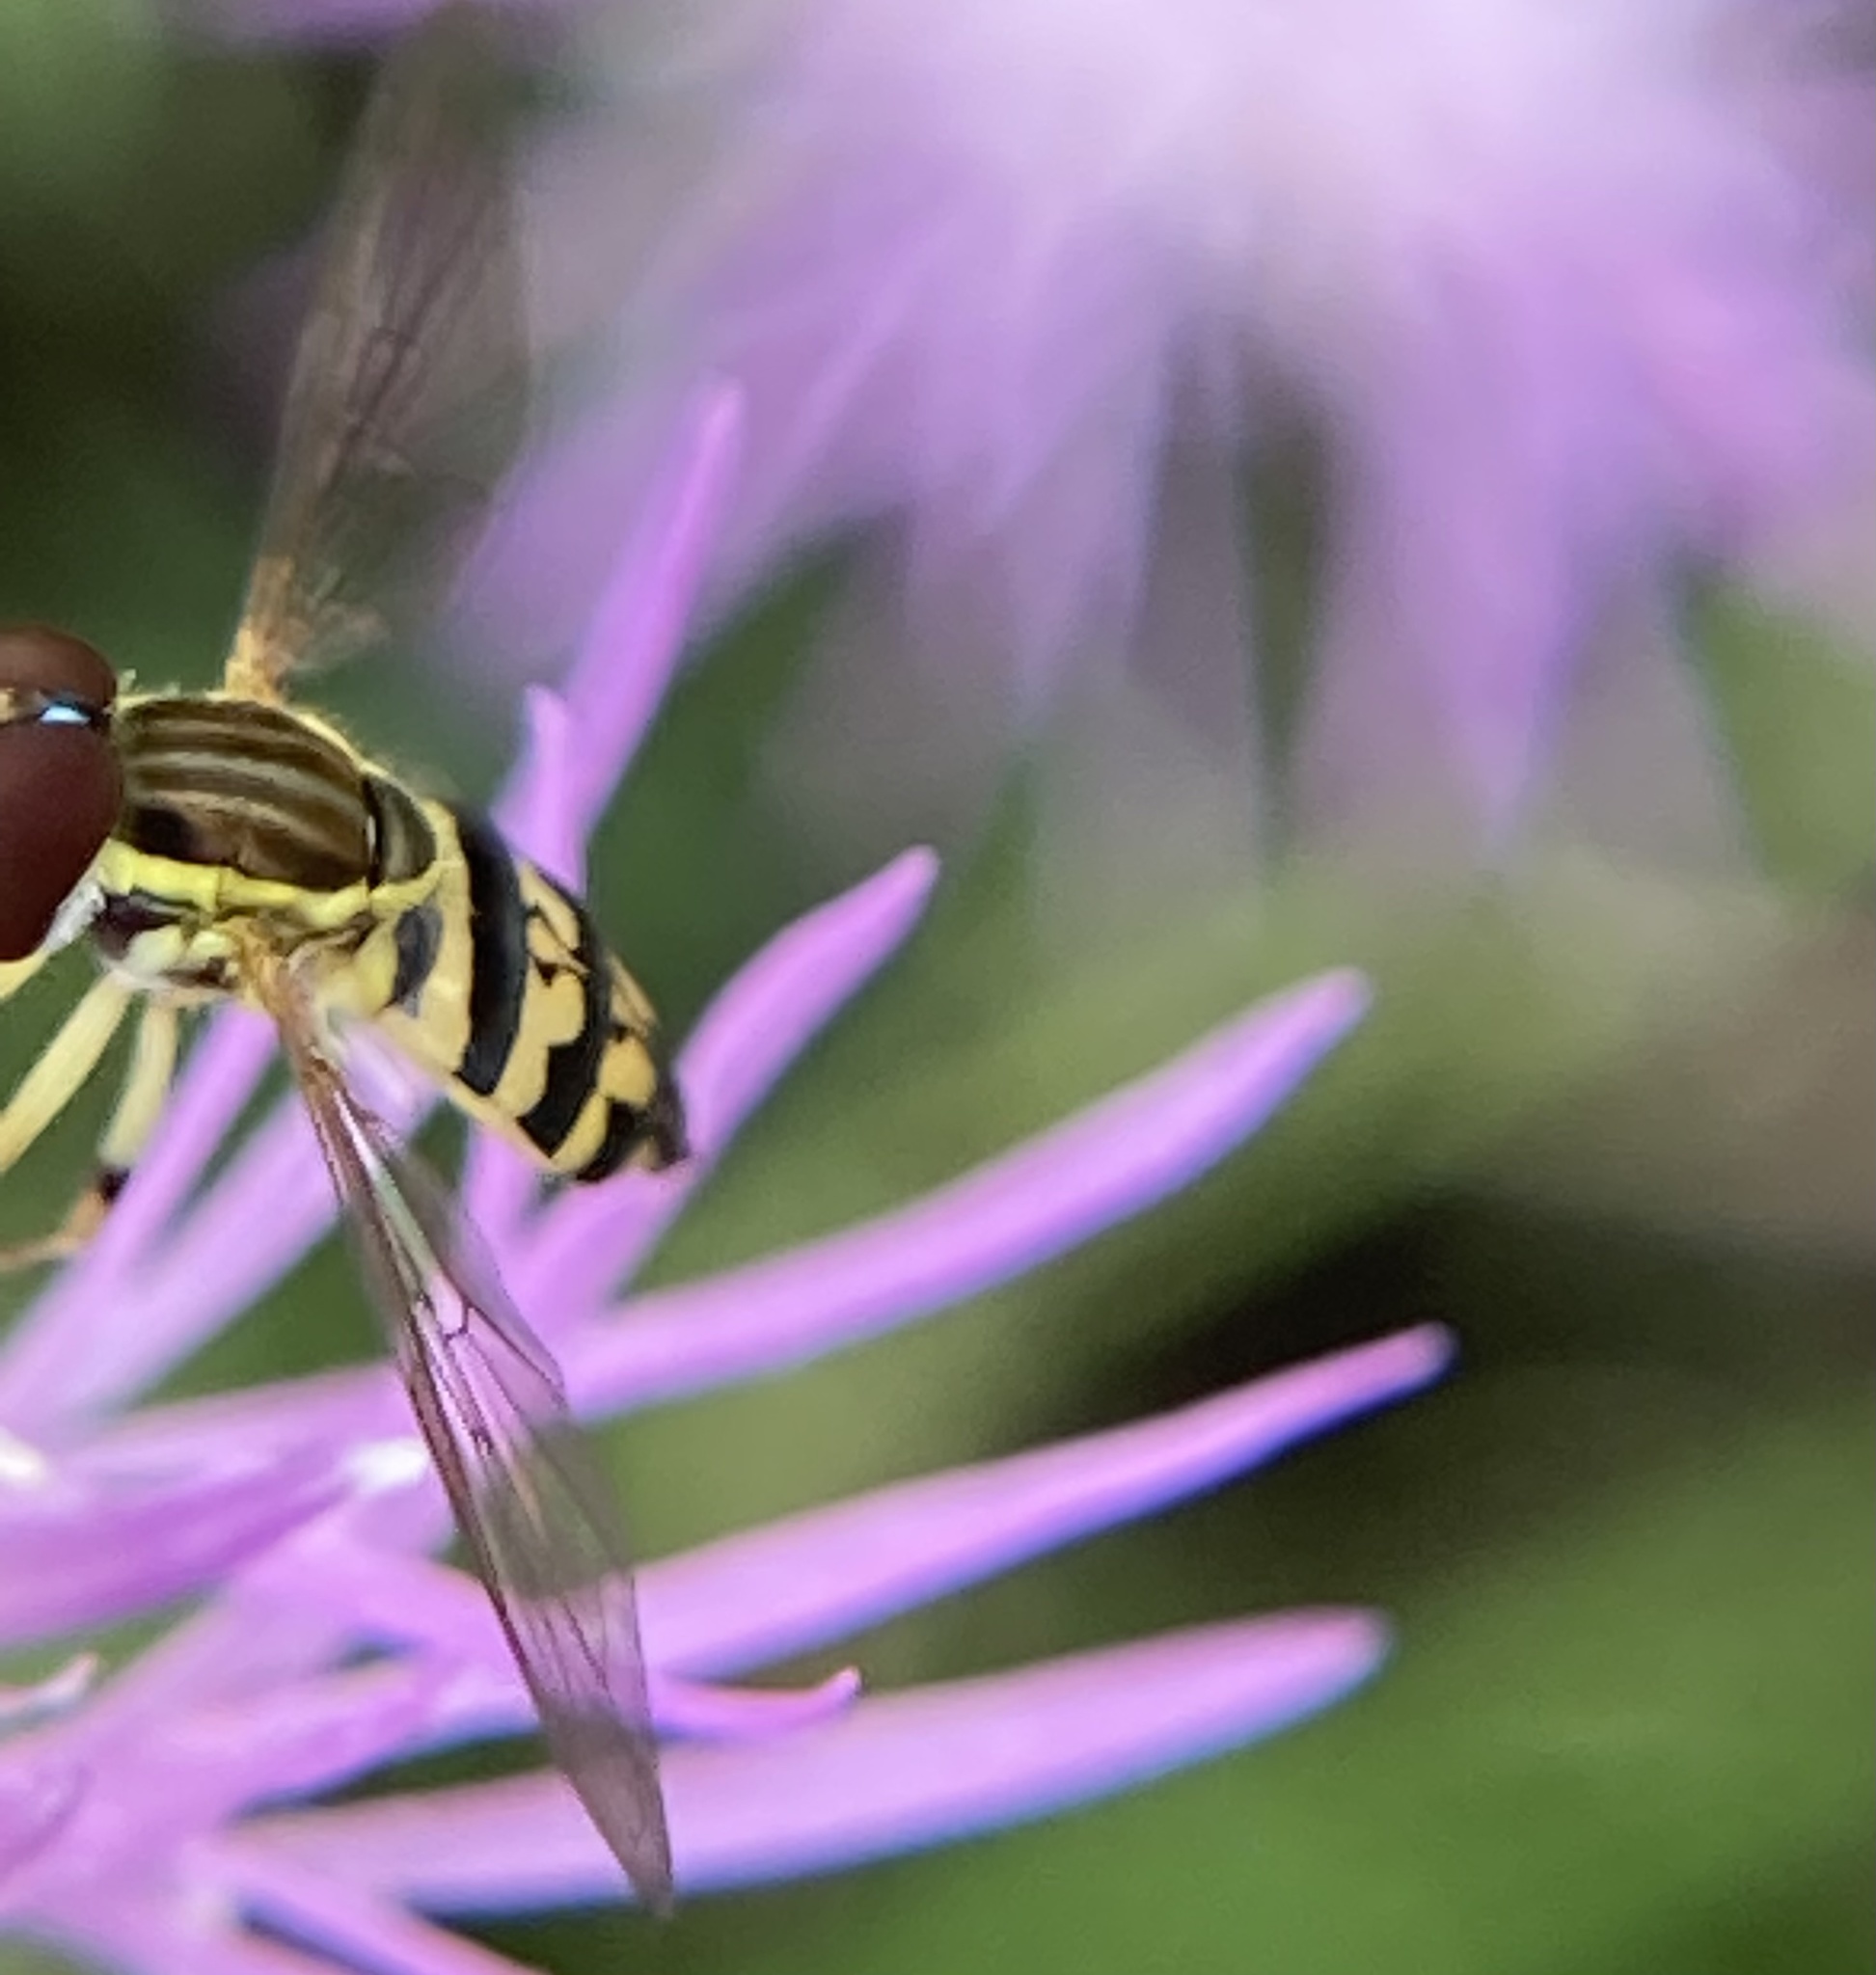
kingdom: Animalia
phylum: Arthropoda
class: Insecta
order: Diptera
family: Syrphidae
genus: Toxomerus
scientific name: Toxomerus geminatus
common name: Eastern calligrapher
